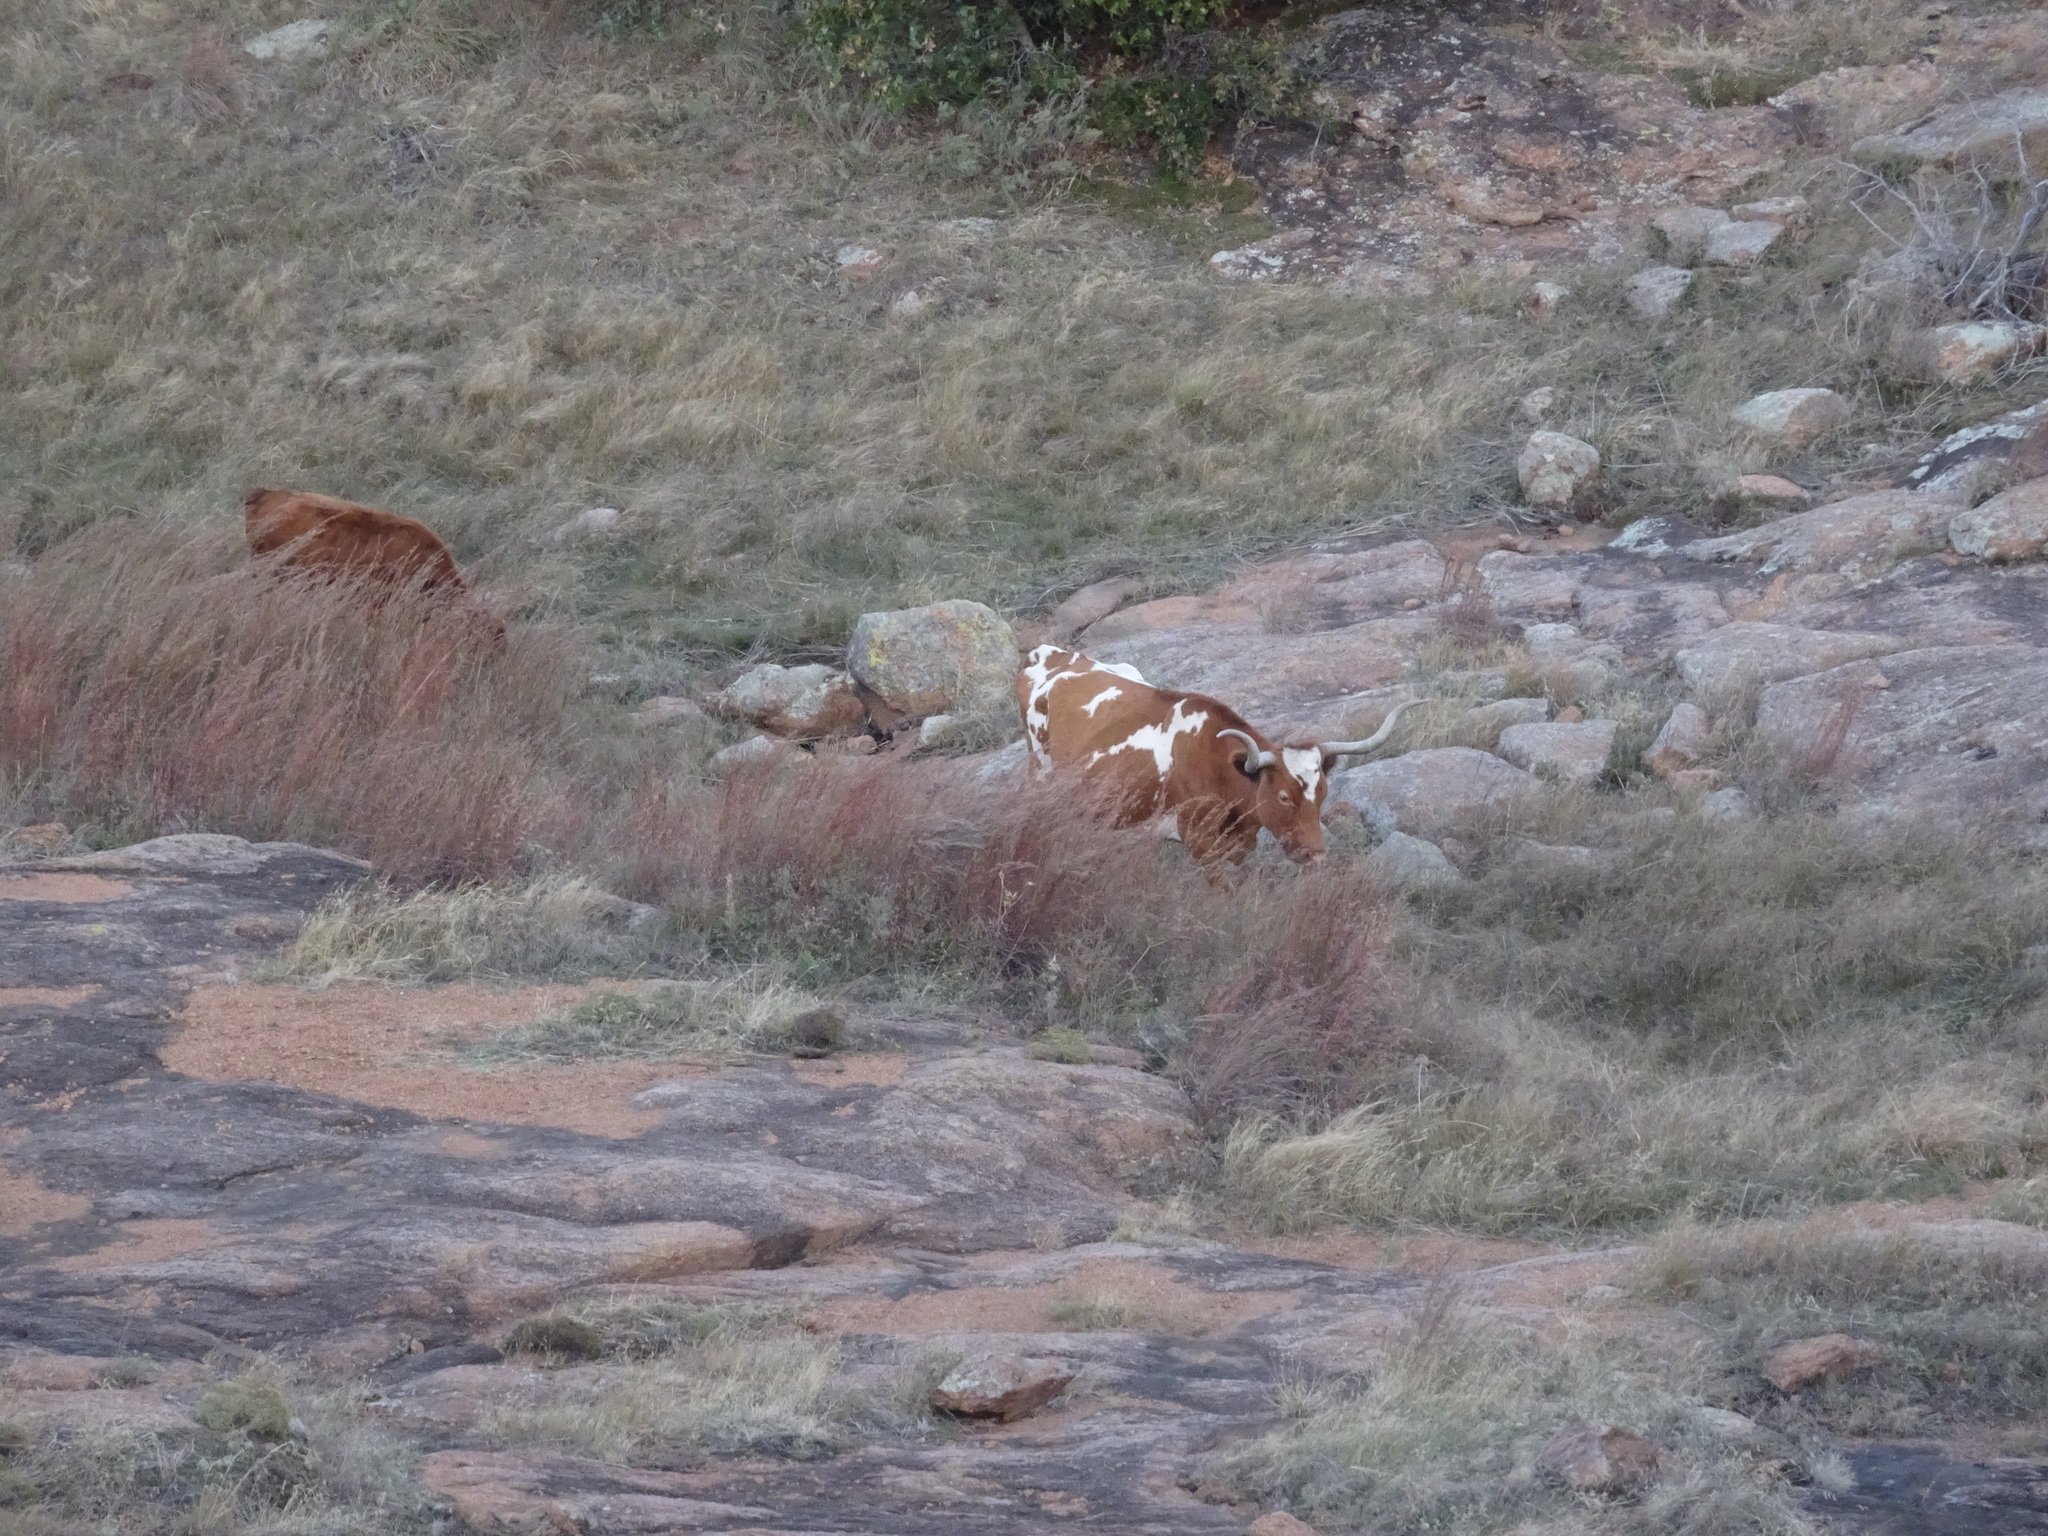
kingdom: Animalia
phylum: Chordata
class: Mammalia
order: Artiodactyla
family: Bovidae
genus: Bos
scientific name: Bos taurus
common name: Domesticated cattle
